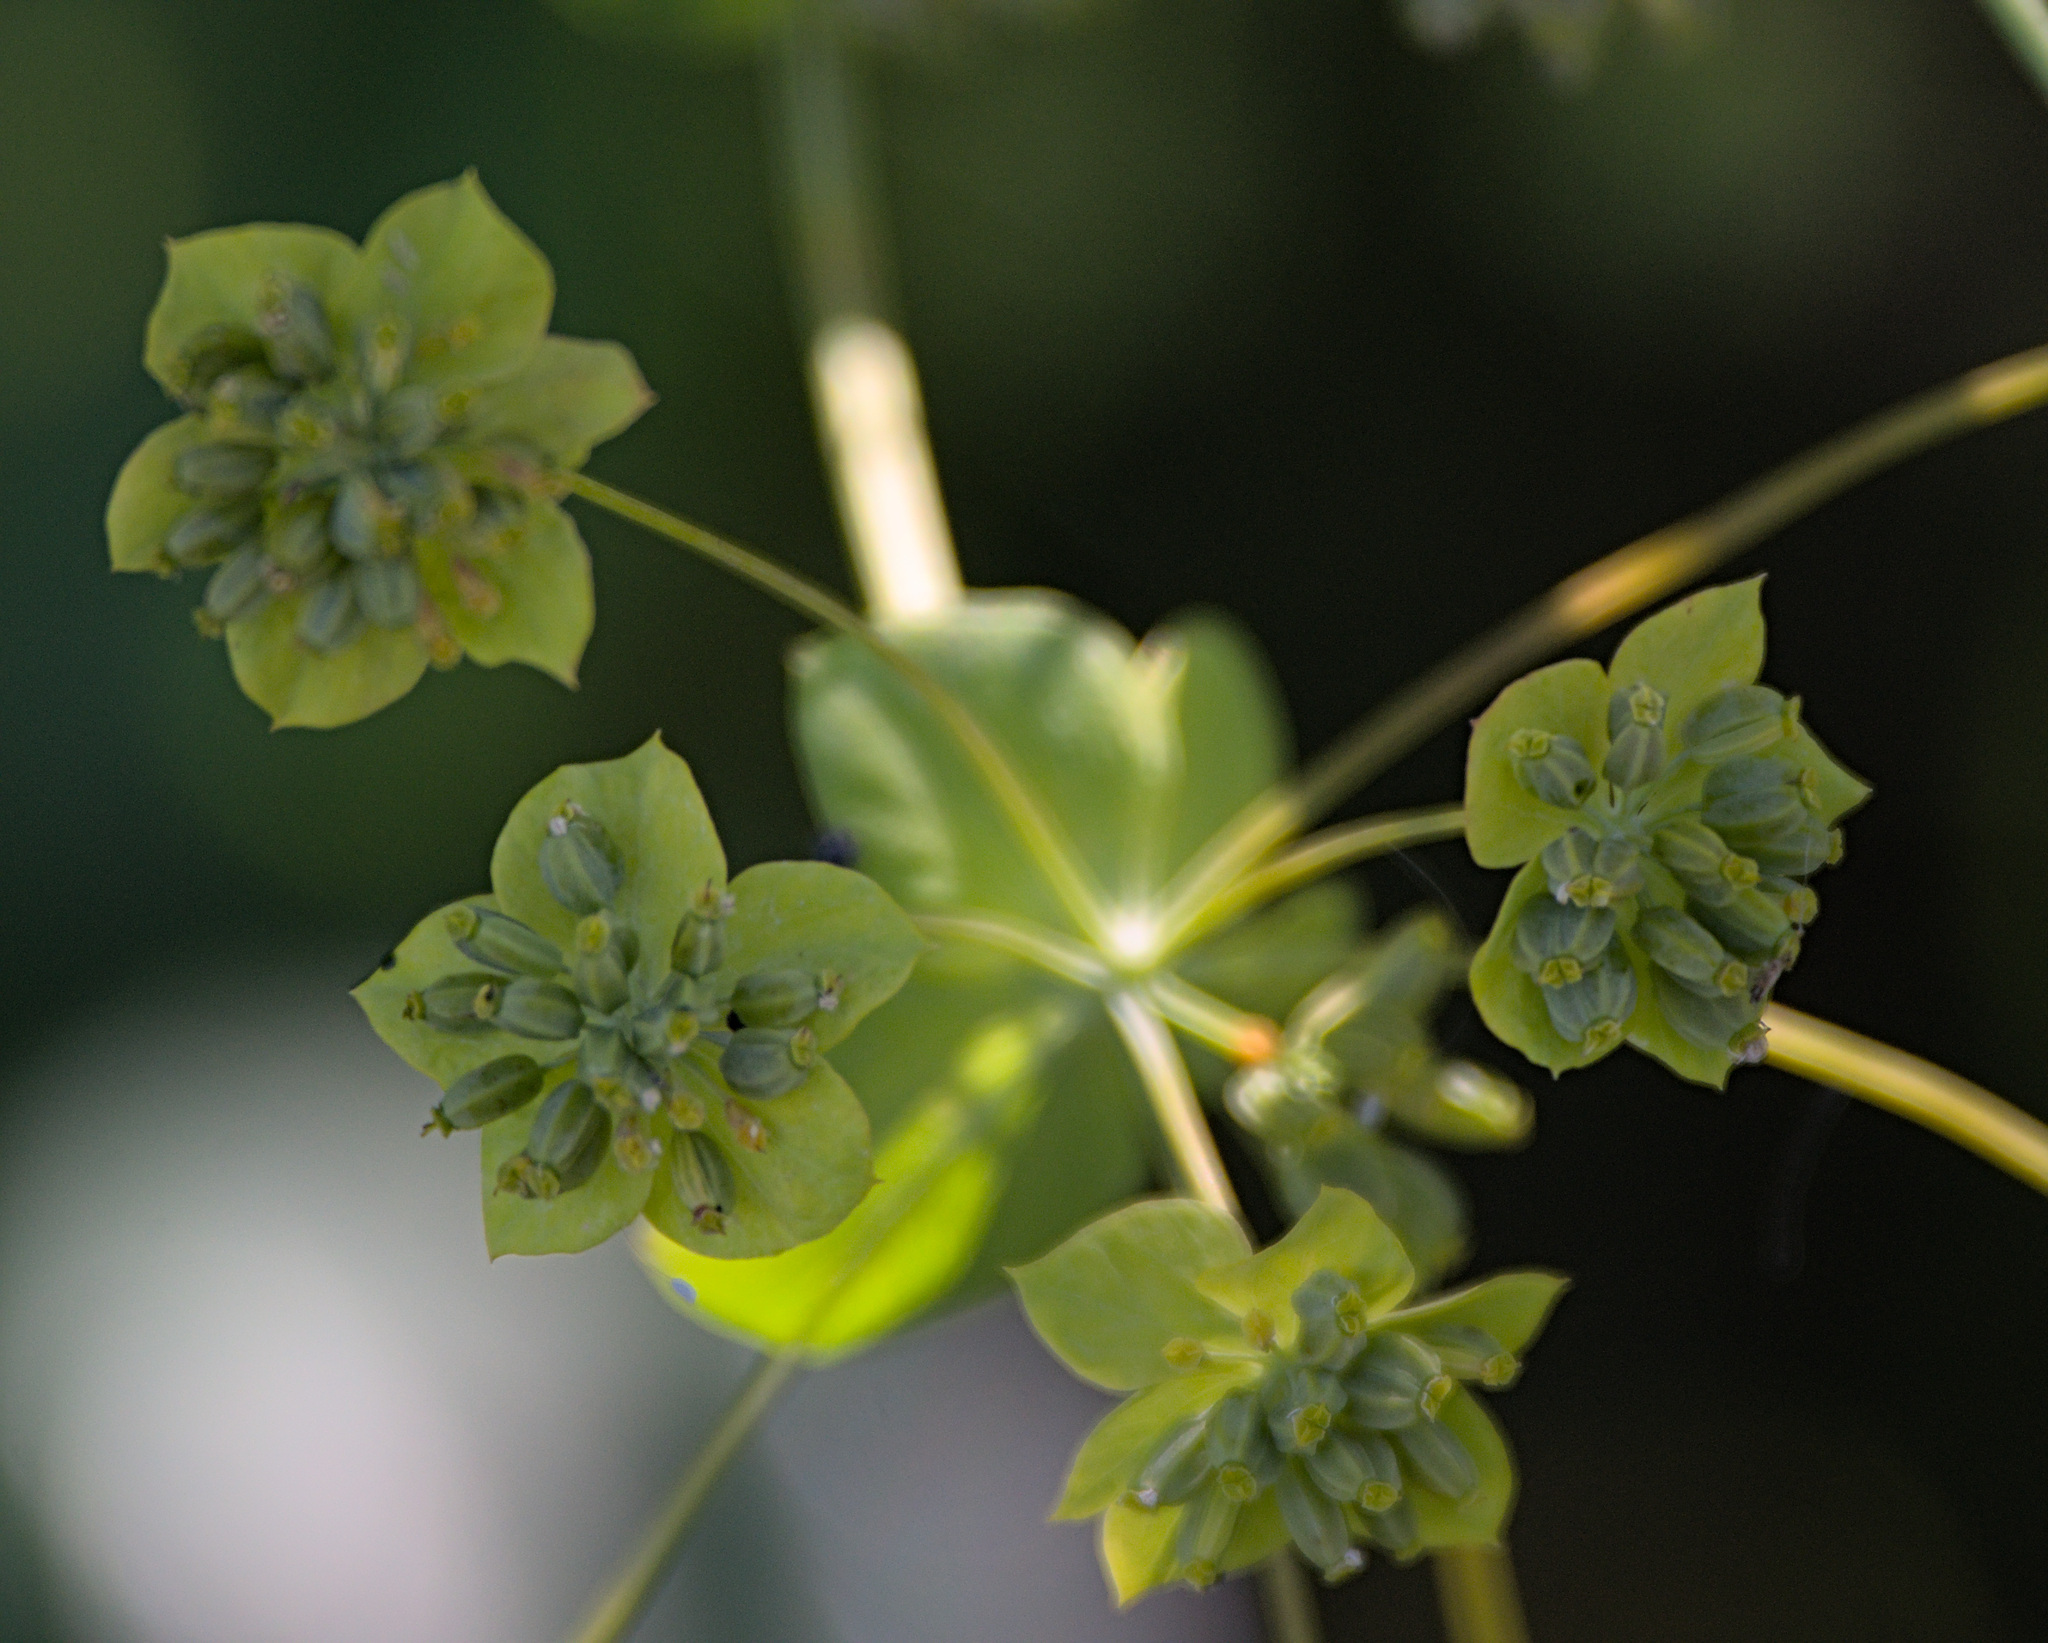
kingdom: Plantae
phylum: Tracheophyta
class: Magnoliopsida
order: Apiales
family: Apiaceae
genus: Bupleurum
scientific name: Bupleurum aureum
